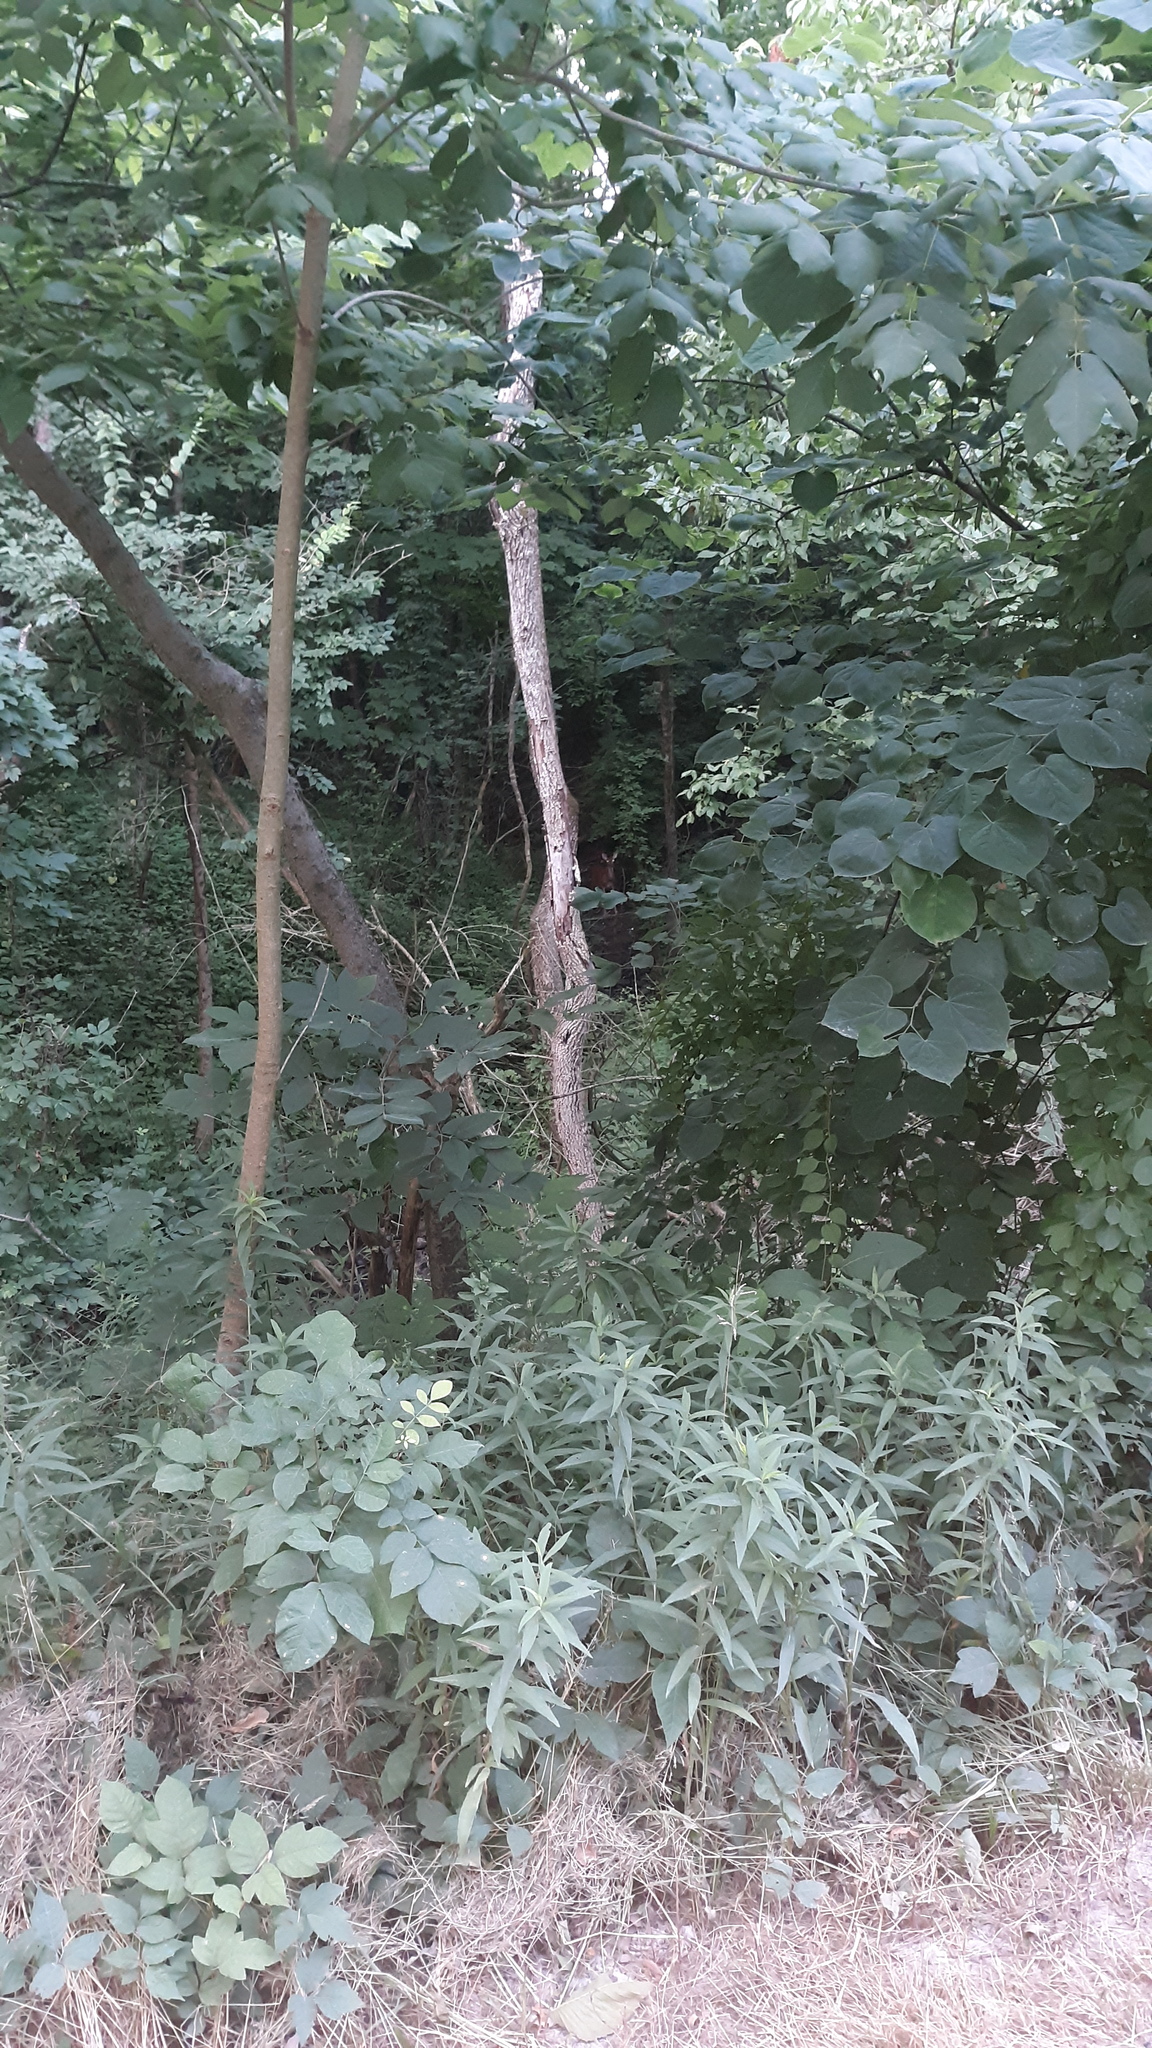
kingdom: Animalia
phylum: Chordata
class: Mammalia
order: Artiodactyla
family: Cervidae
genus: Odocoileus
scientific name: Odocoileus virginianus
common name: White-tailed deer
